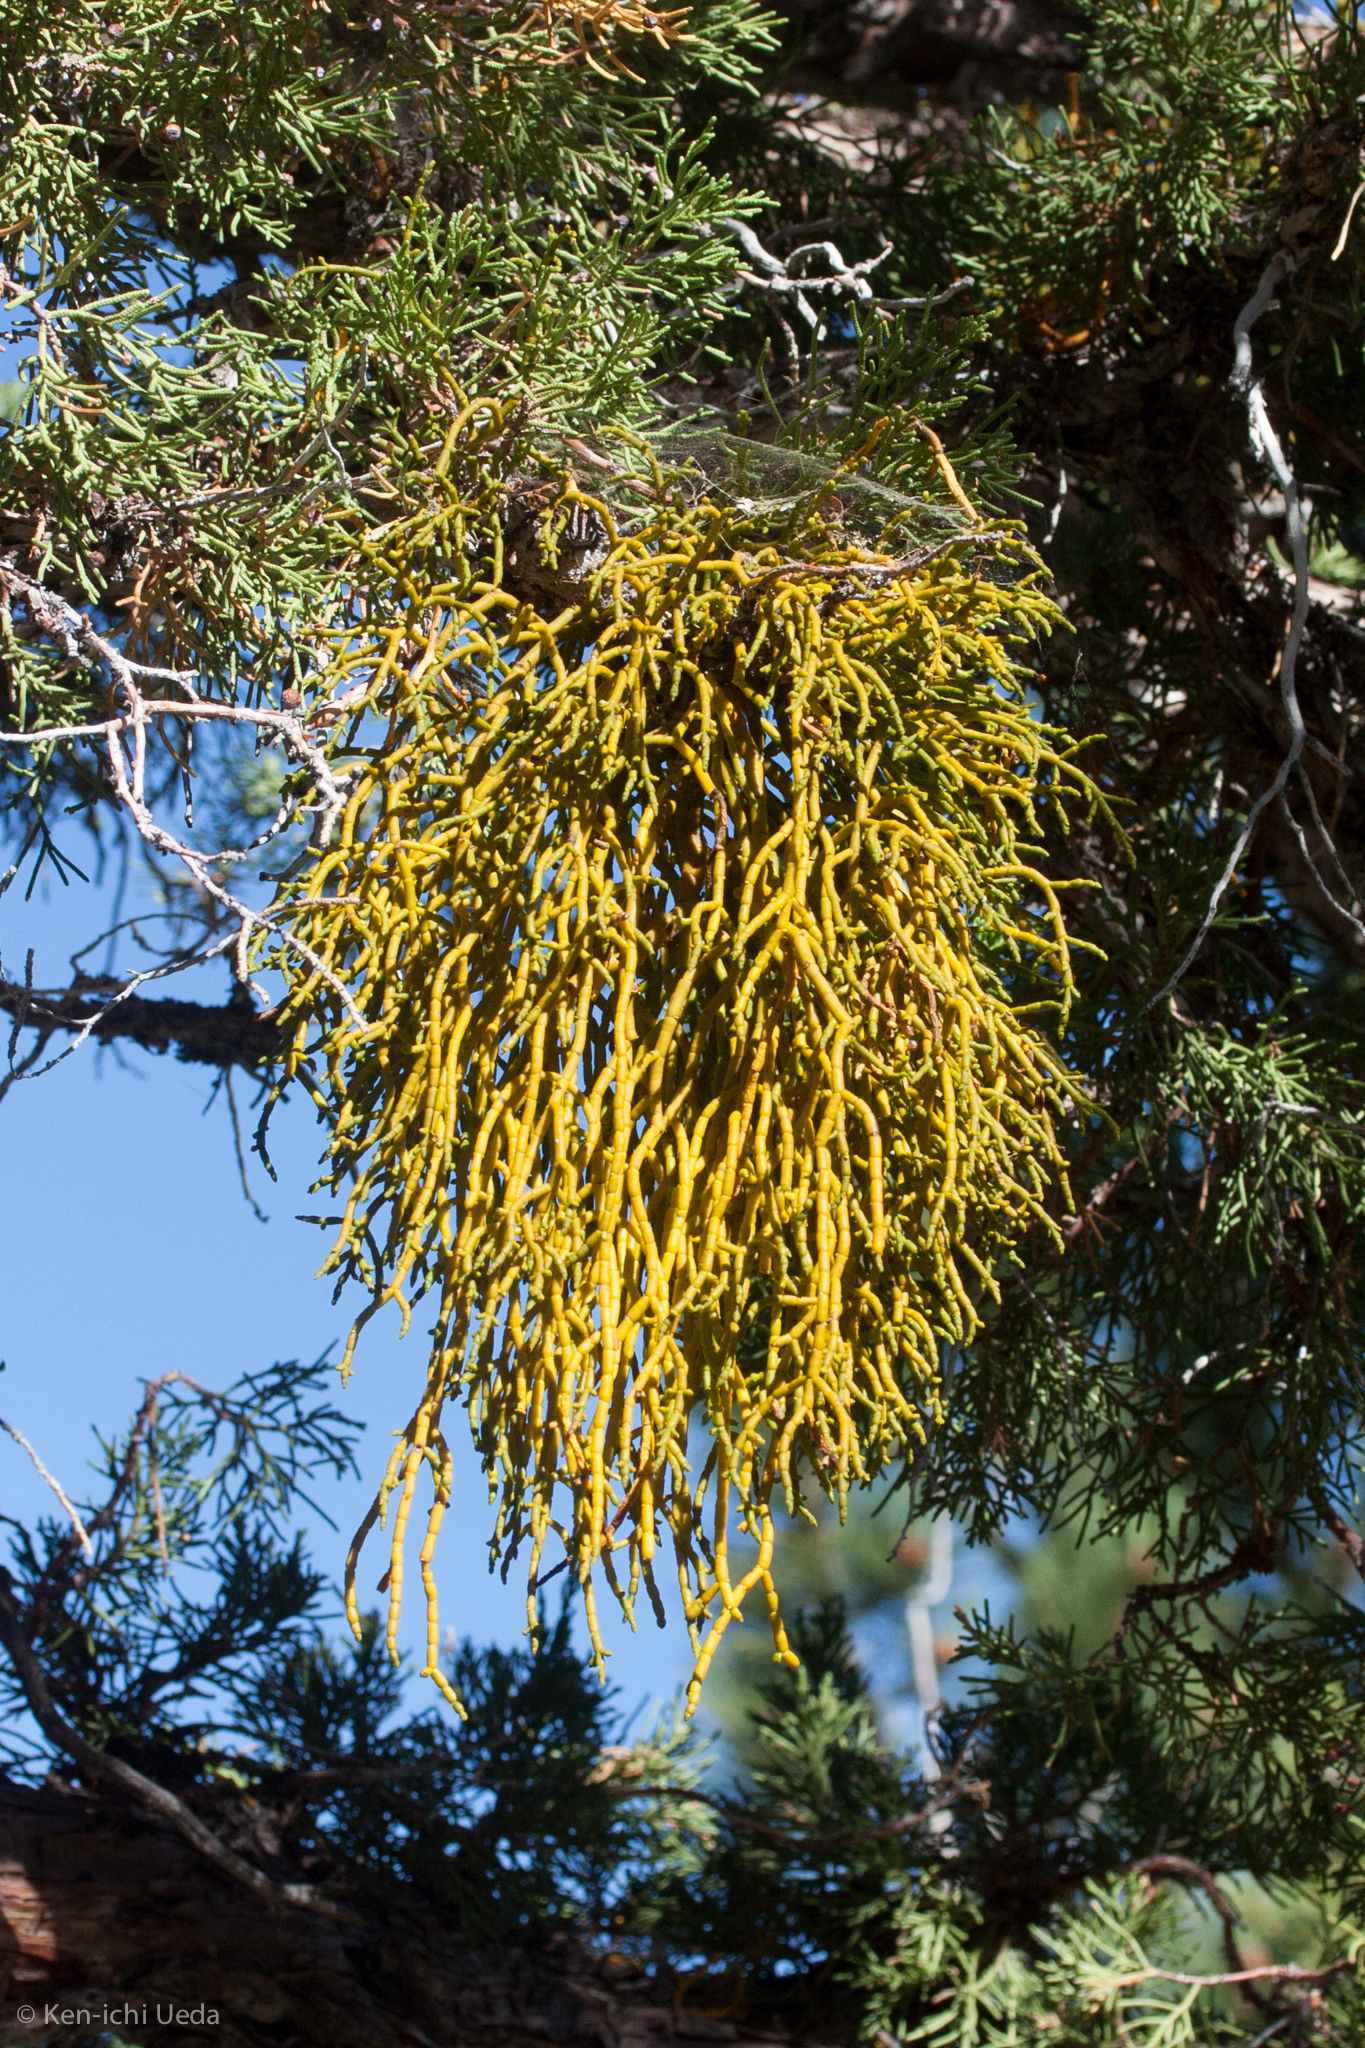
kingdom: Plantae
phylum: Tracheophyta
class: Magnoliopsida
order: Santalales
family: Viscaceae
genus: Phoradendron
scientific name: Phoradendron juniperinum
